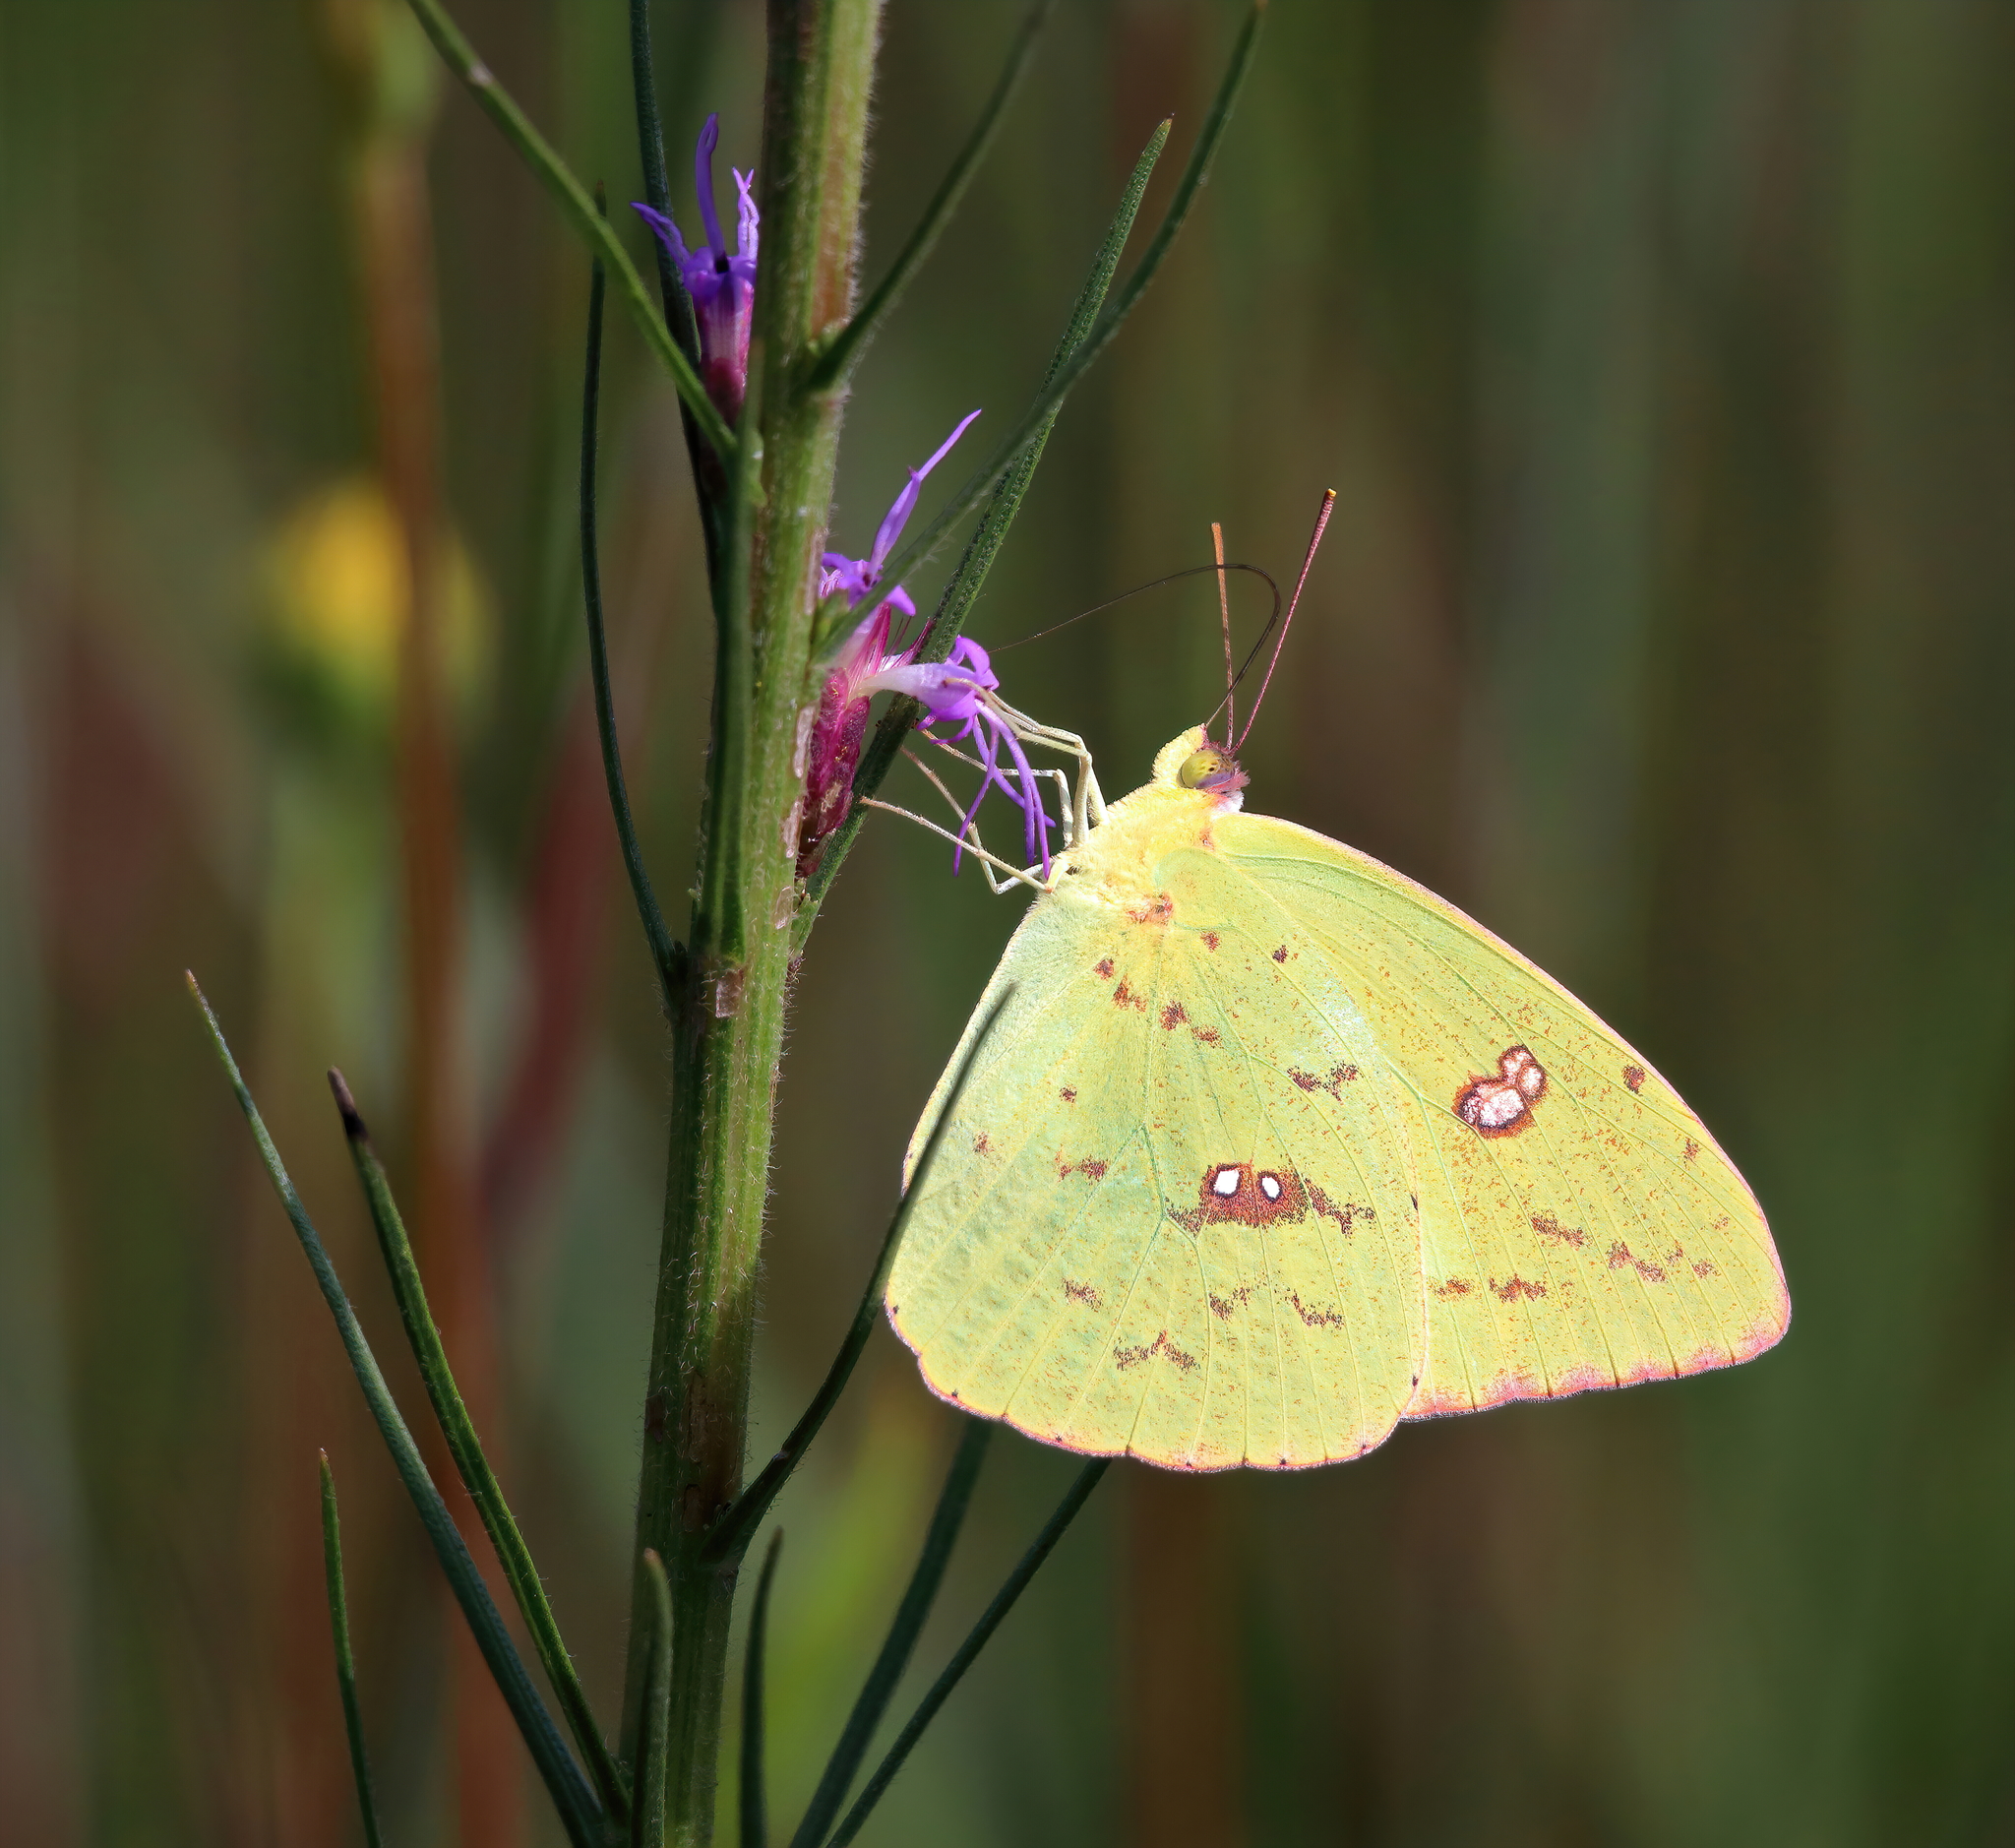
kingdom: Animalia
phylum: Arthropoda
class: Insecta
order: Lepidoptera
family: Pieridae
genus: Phoebis
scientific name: Phoebis sennae
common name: Cloudless sulphur
